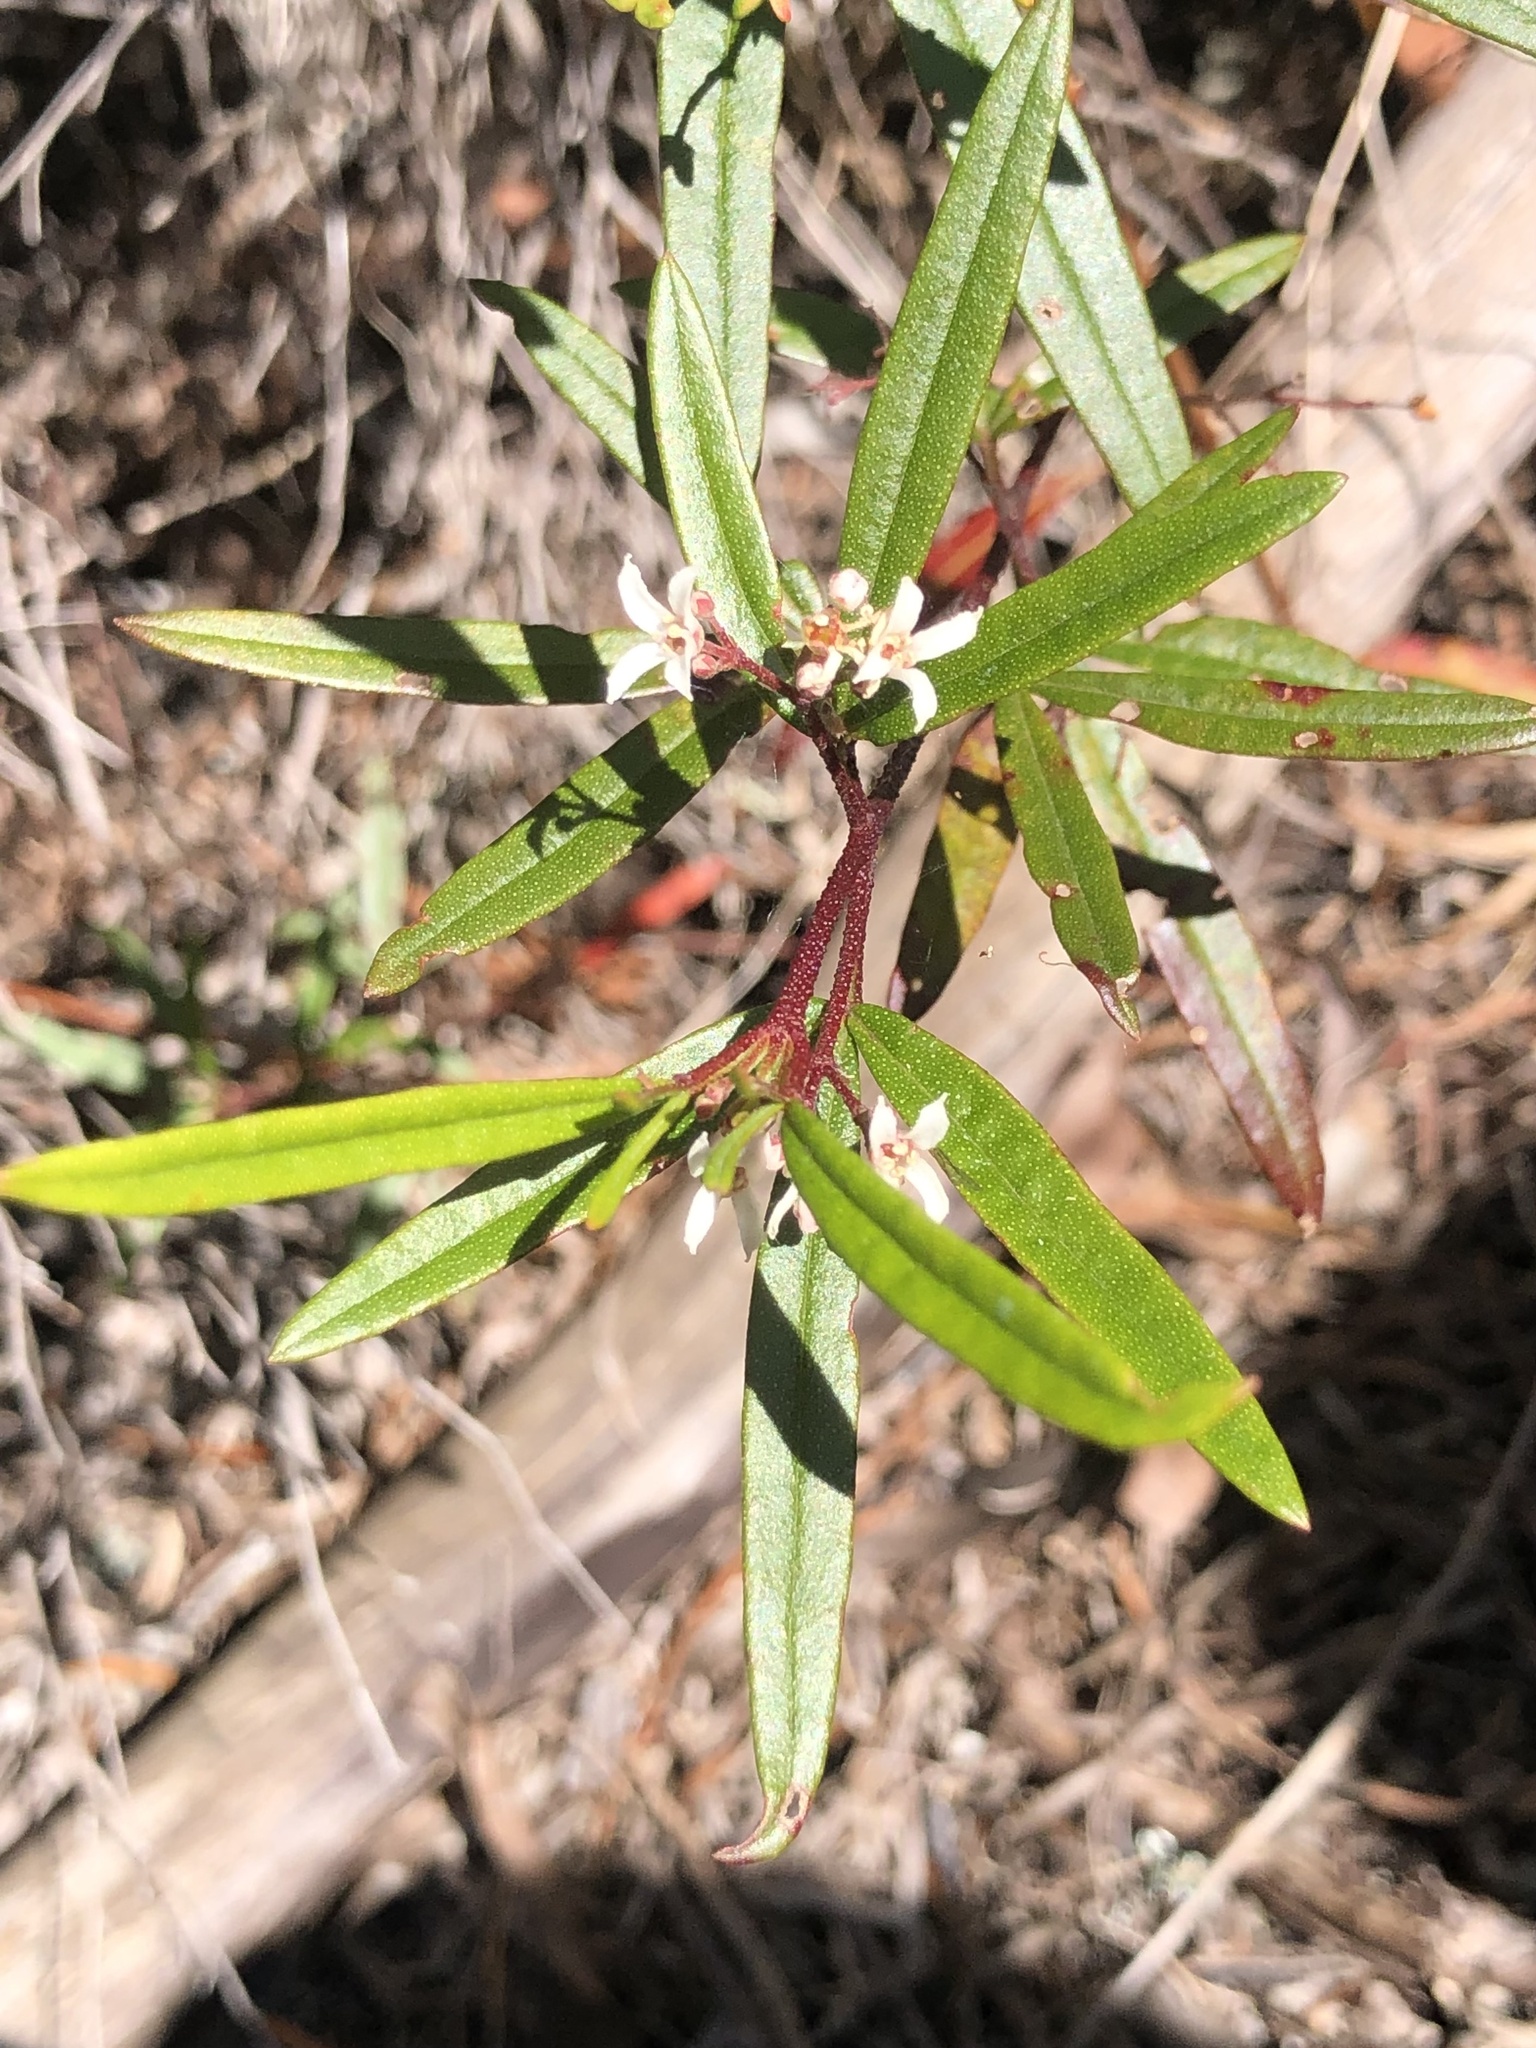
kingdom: Plantae
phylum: Tracheophyta
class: Magnoliopsida
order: Sapindales
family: Rutaceae
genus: Zieria
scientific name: Zieria hindii
